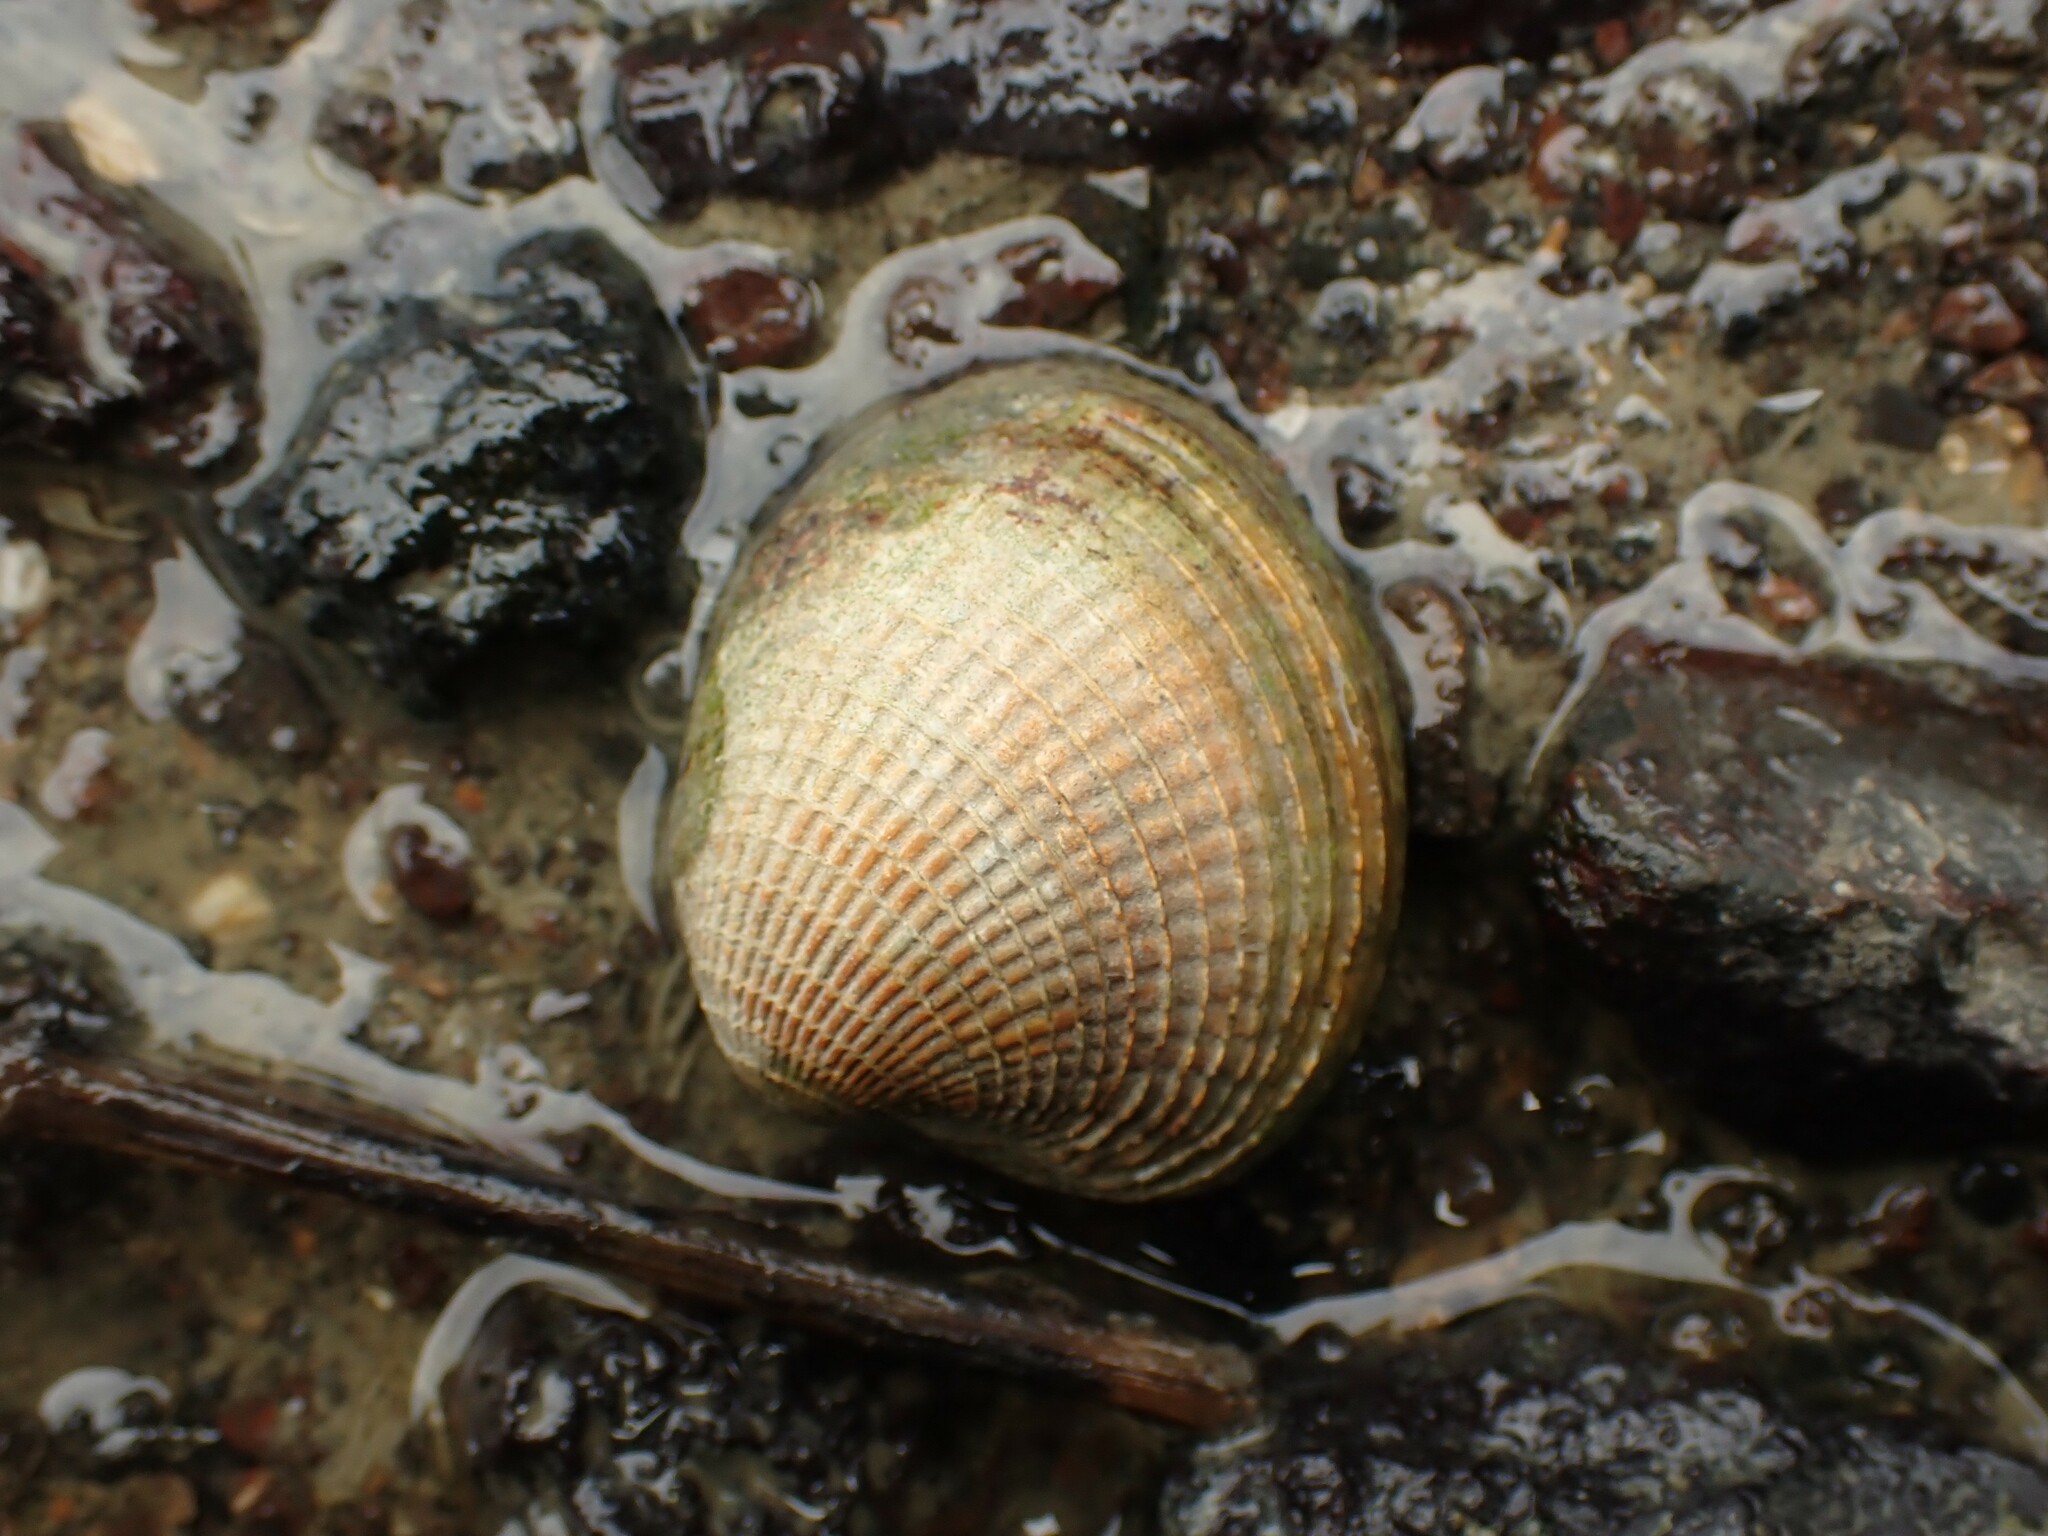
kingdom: Animalia
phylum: Mollusca
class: Bivalvia
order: Venerida
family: Veneridae
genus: Austrovenus
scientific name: Austrovenus stutchburyi
